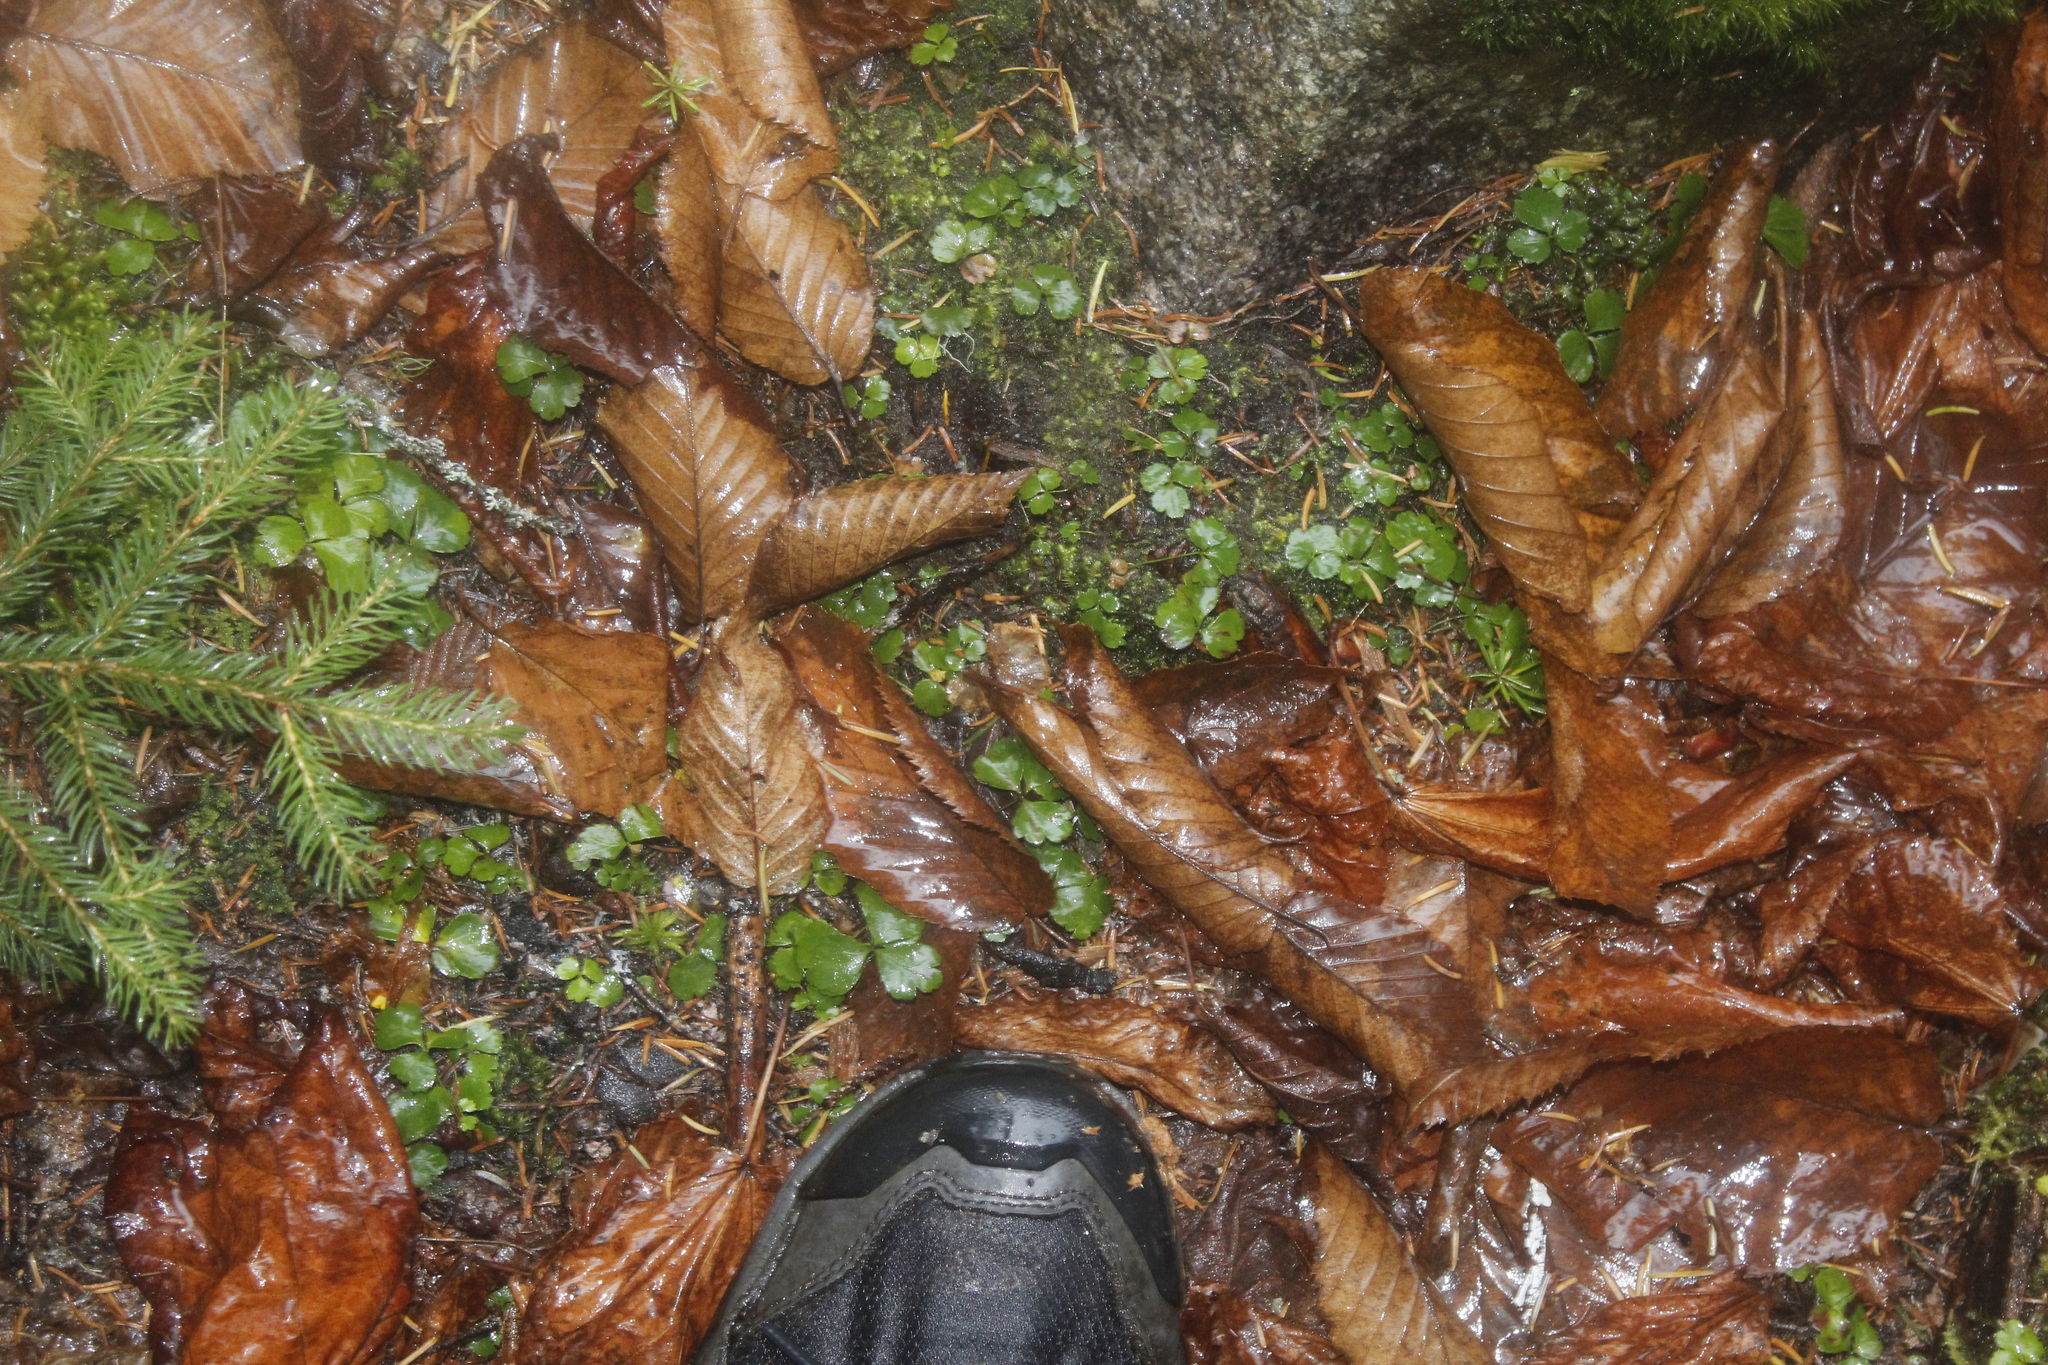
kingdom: Plantae
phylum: Tracheophyta
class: Magnoliopsida
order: Ranunculales
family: Ranunculaceae
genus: Coptis
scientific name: Coptis trifolia
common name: Canker-root
